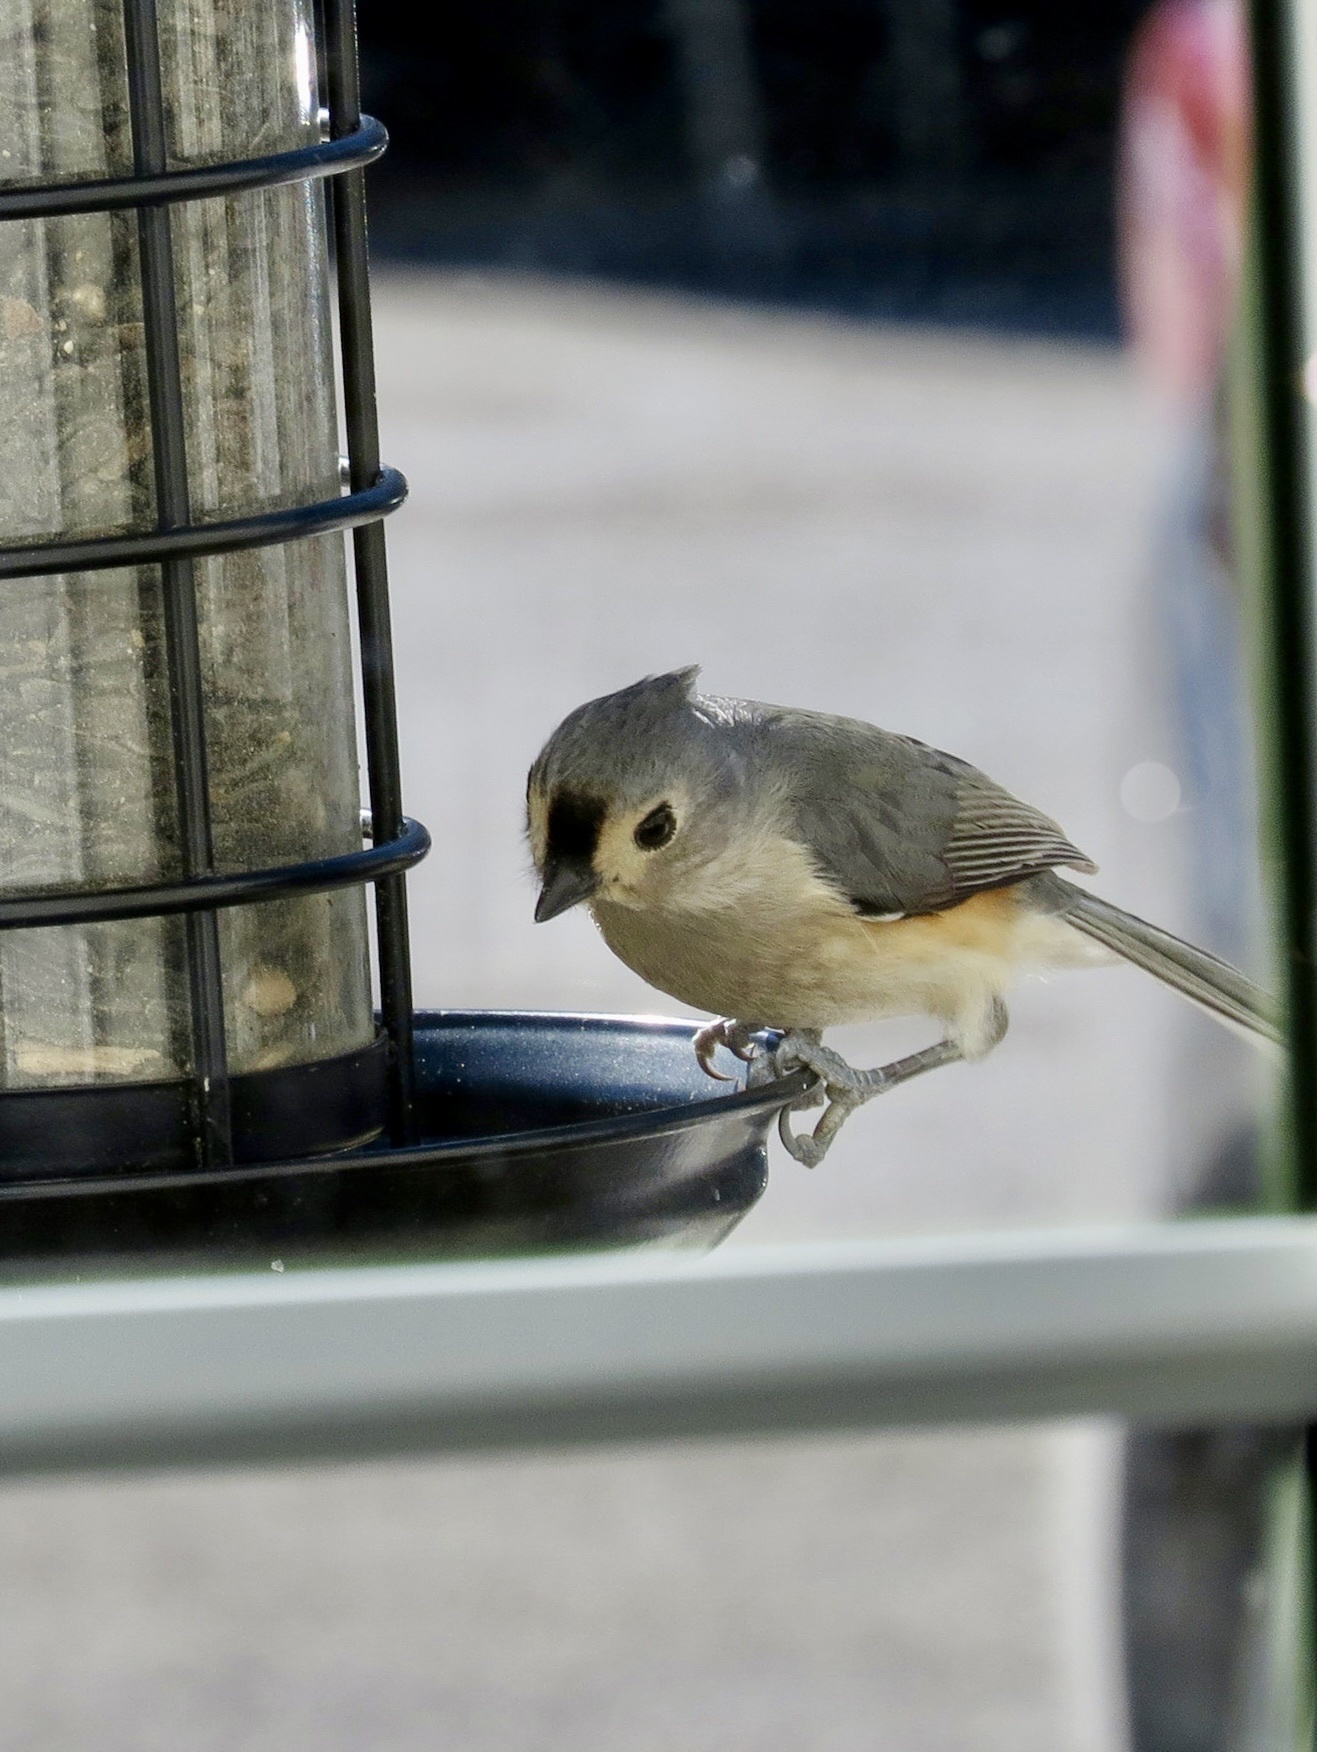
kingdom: Animalia
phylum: Chordata
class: Aves
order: Passeriformes
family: Paridae
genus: Baeolophus
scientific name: Baeolophus bicolor
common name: Tufted titmouse
